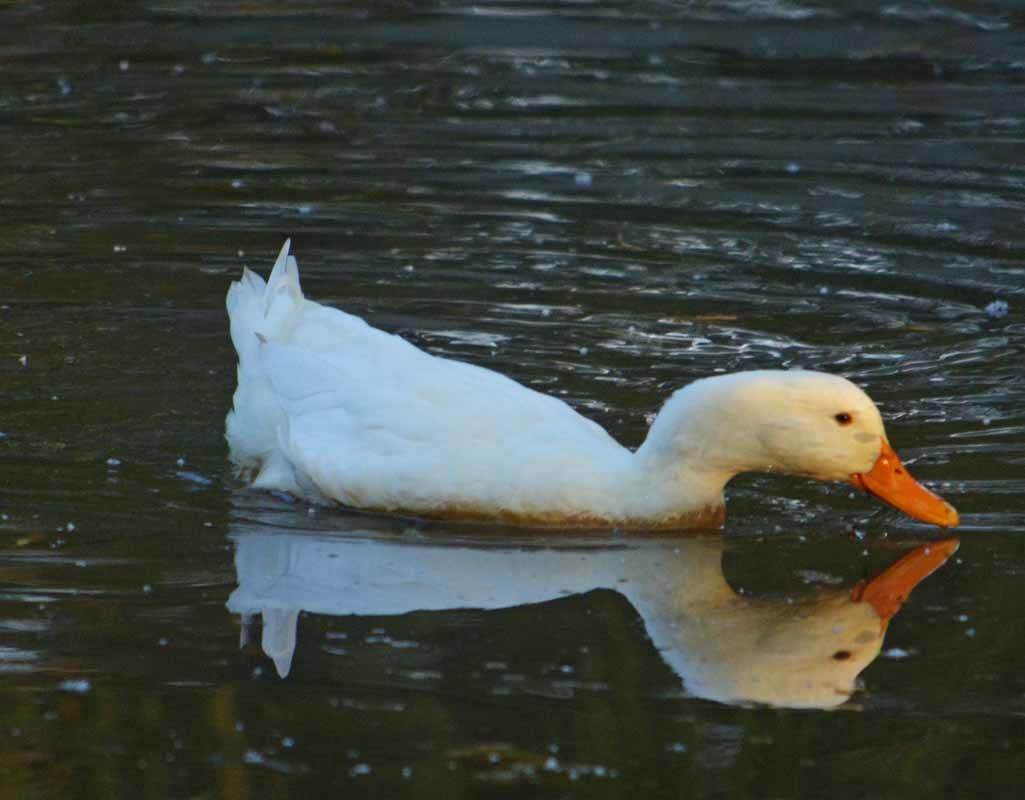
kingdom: Animalia
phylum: Chordata
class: Aves
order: Anseriformes
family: Anatidae
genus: Anas
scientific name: Anas platyrhynchos
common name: Mallard
